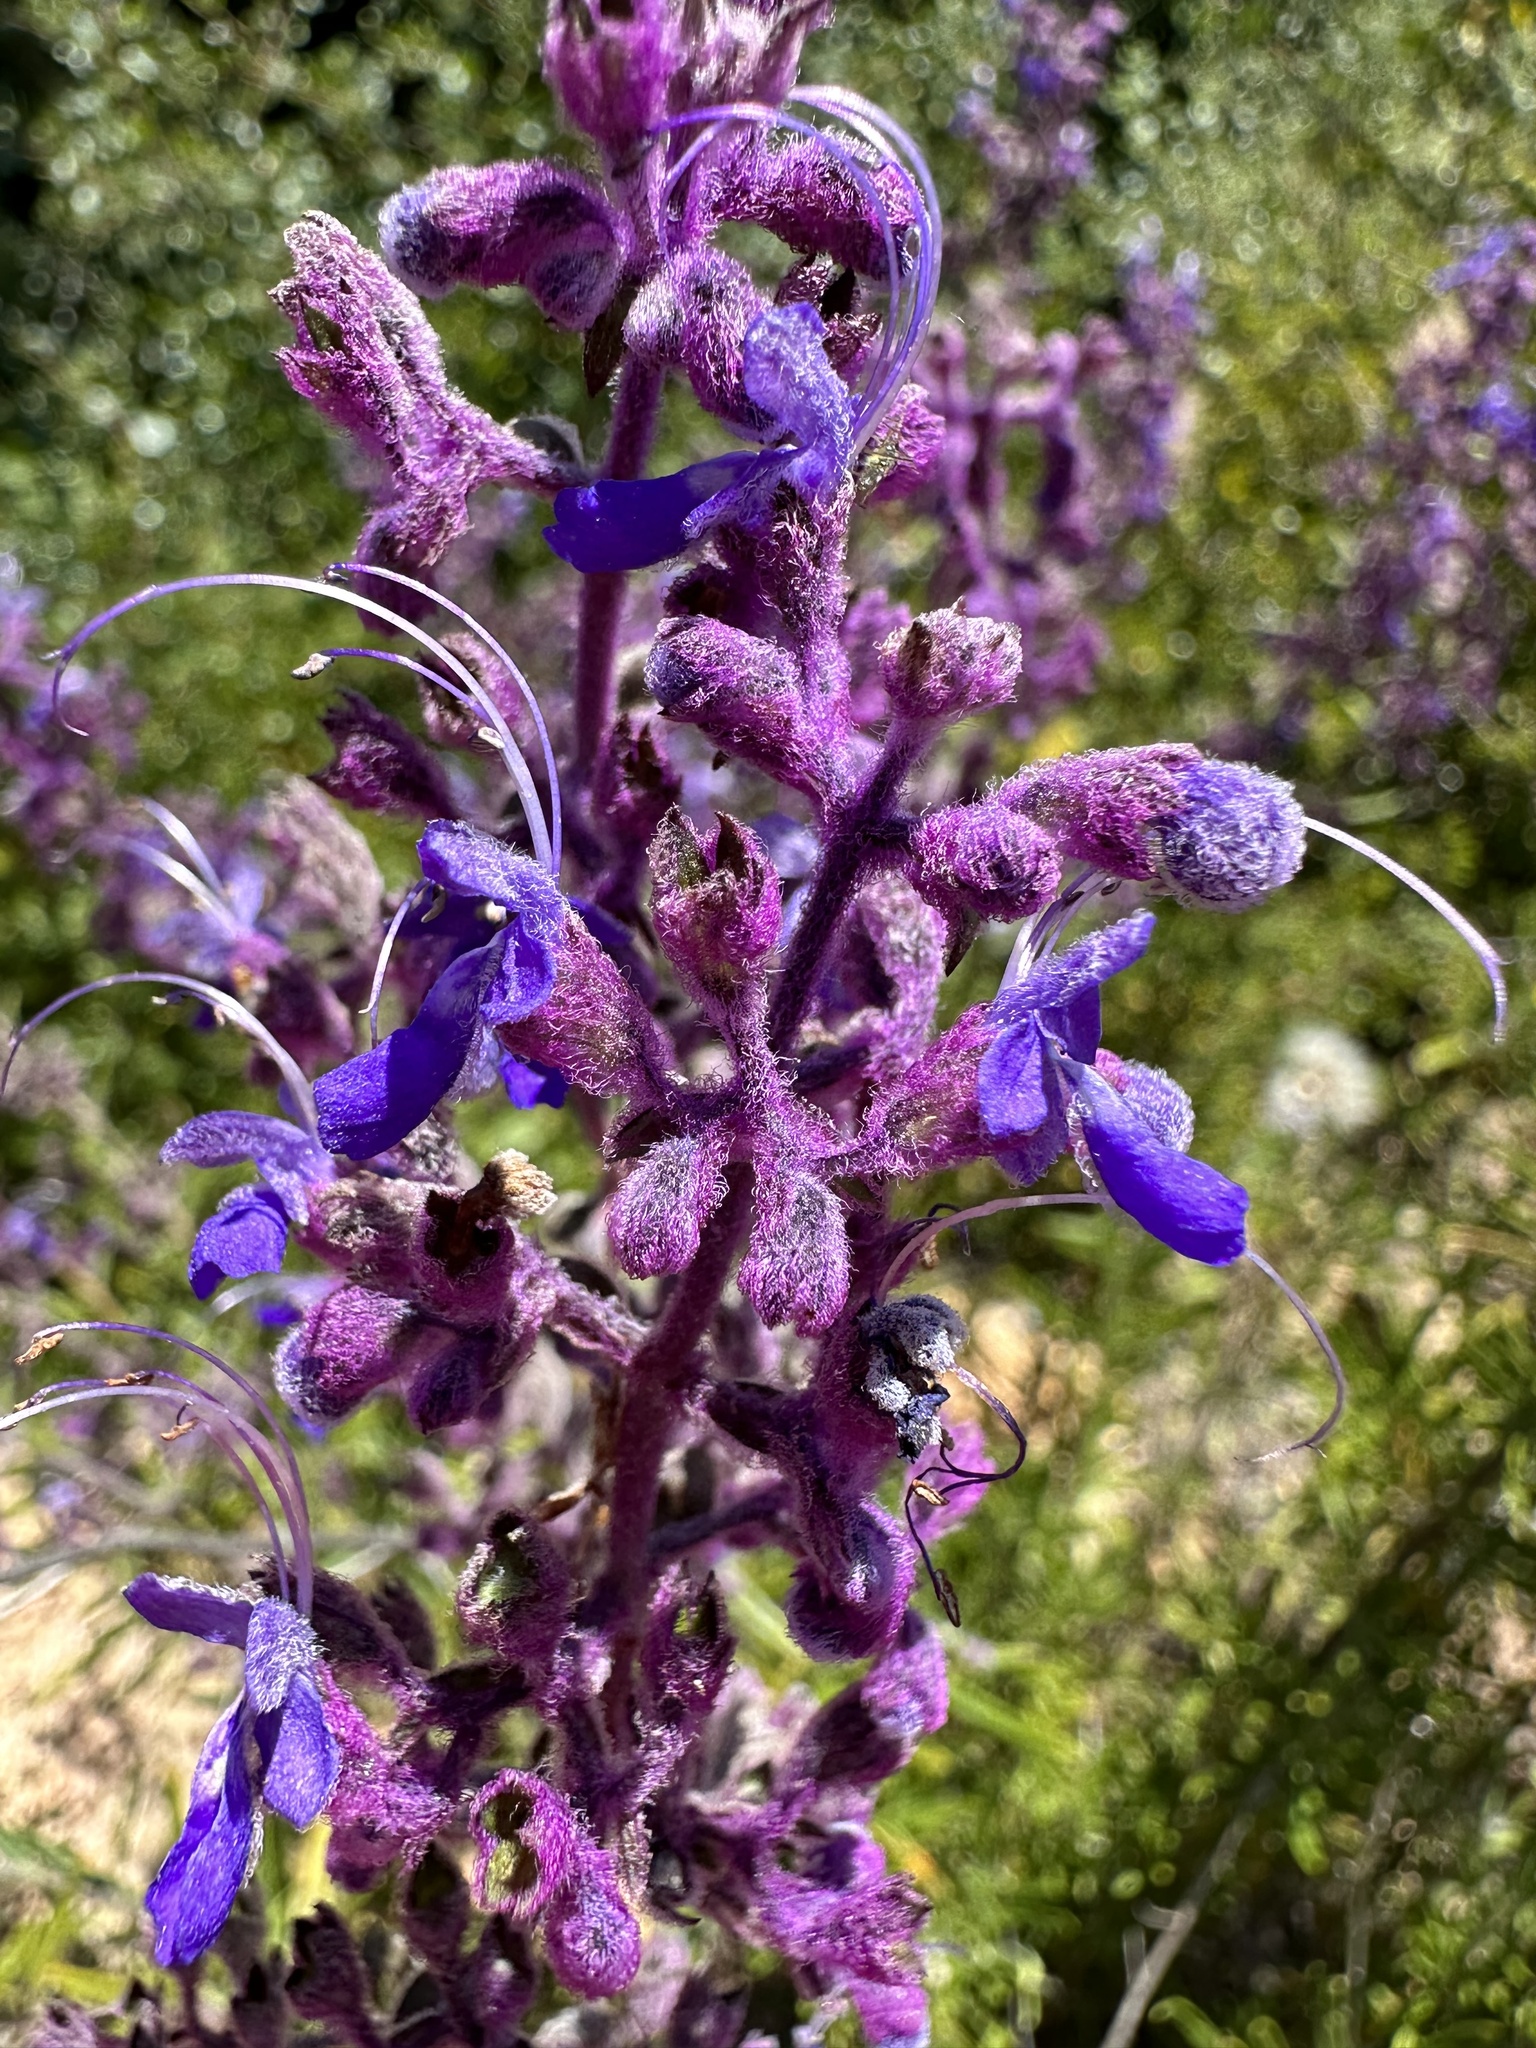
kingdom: Plantae
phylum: Tracheophyta
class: Magnoliopsida
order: Lamiales
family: Lamiaceae
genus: Trichostema
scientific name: Trichostema parishii
